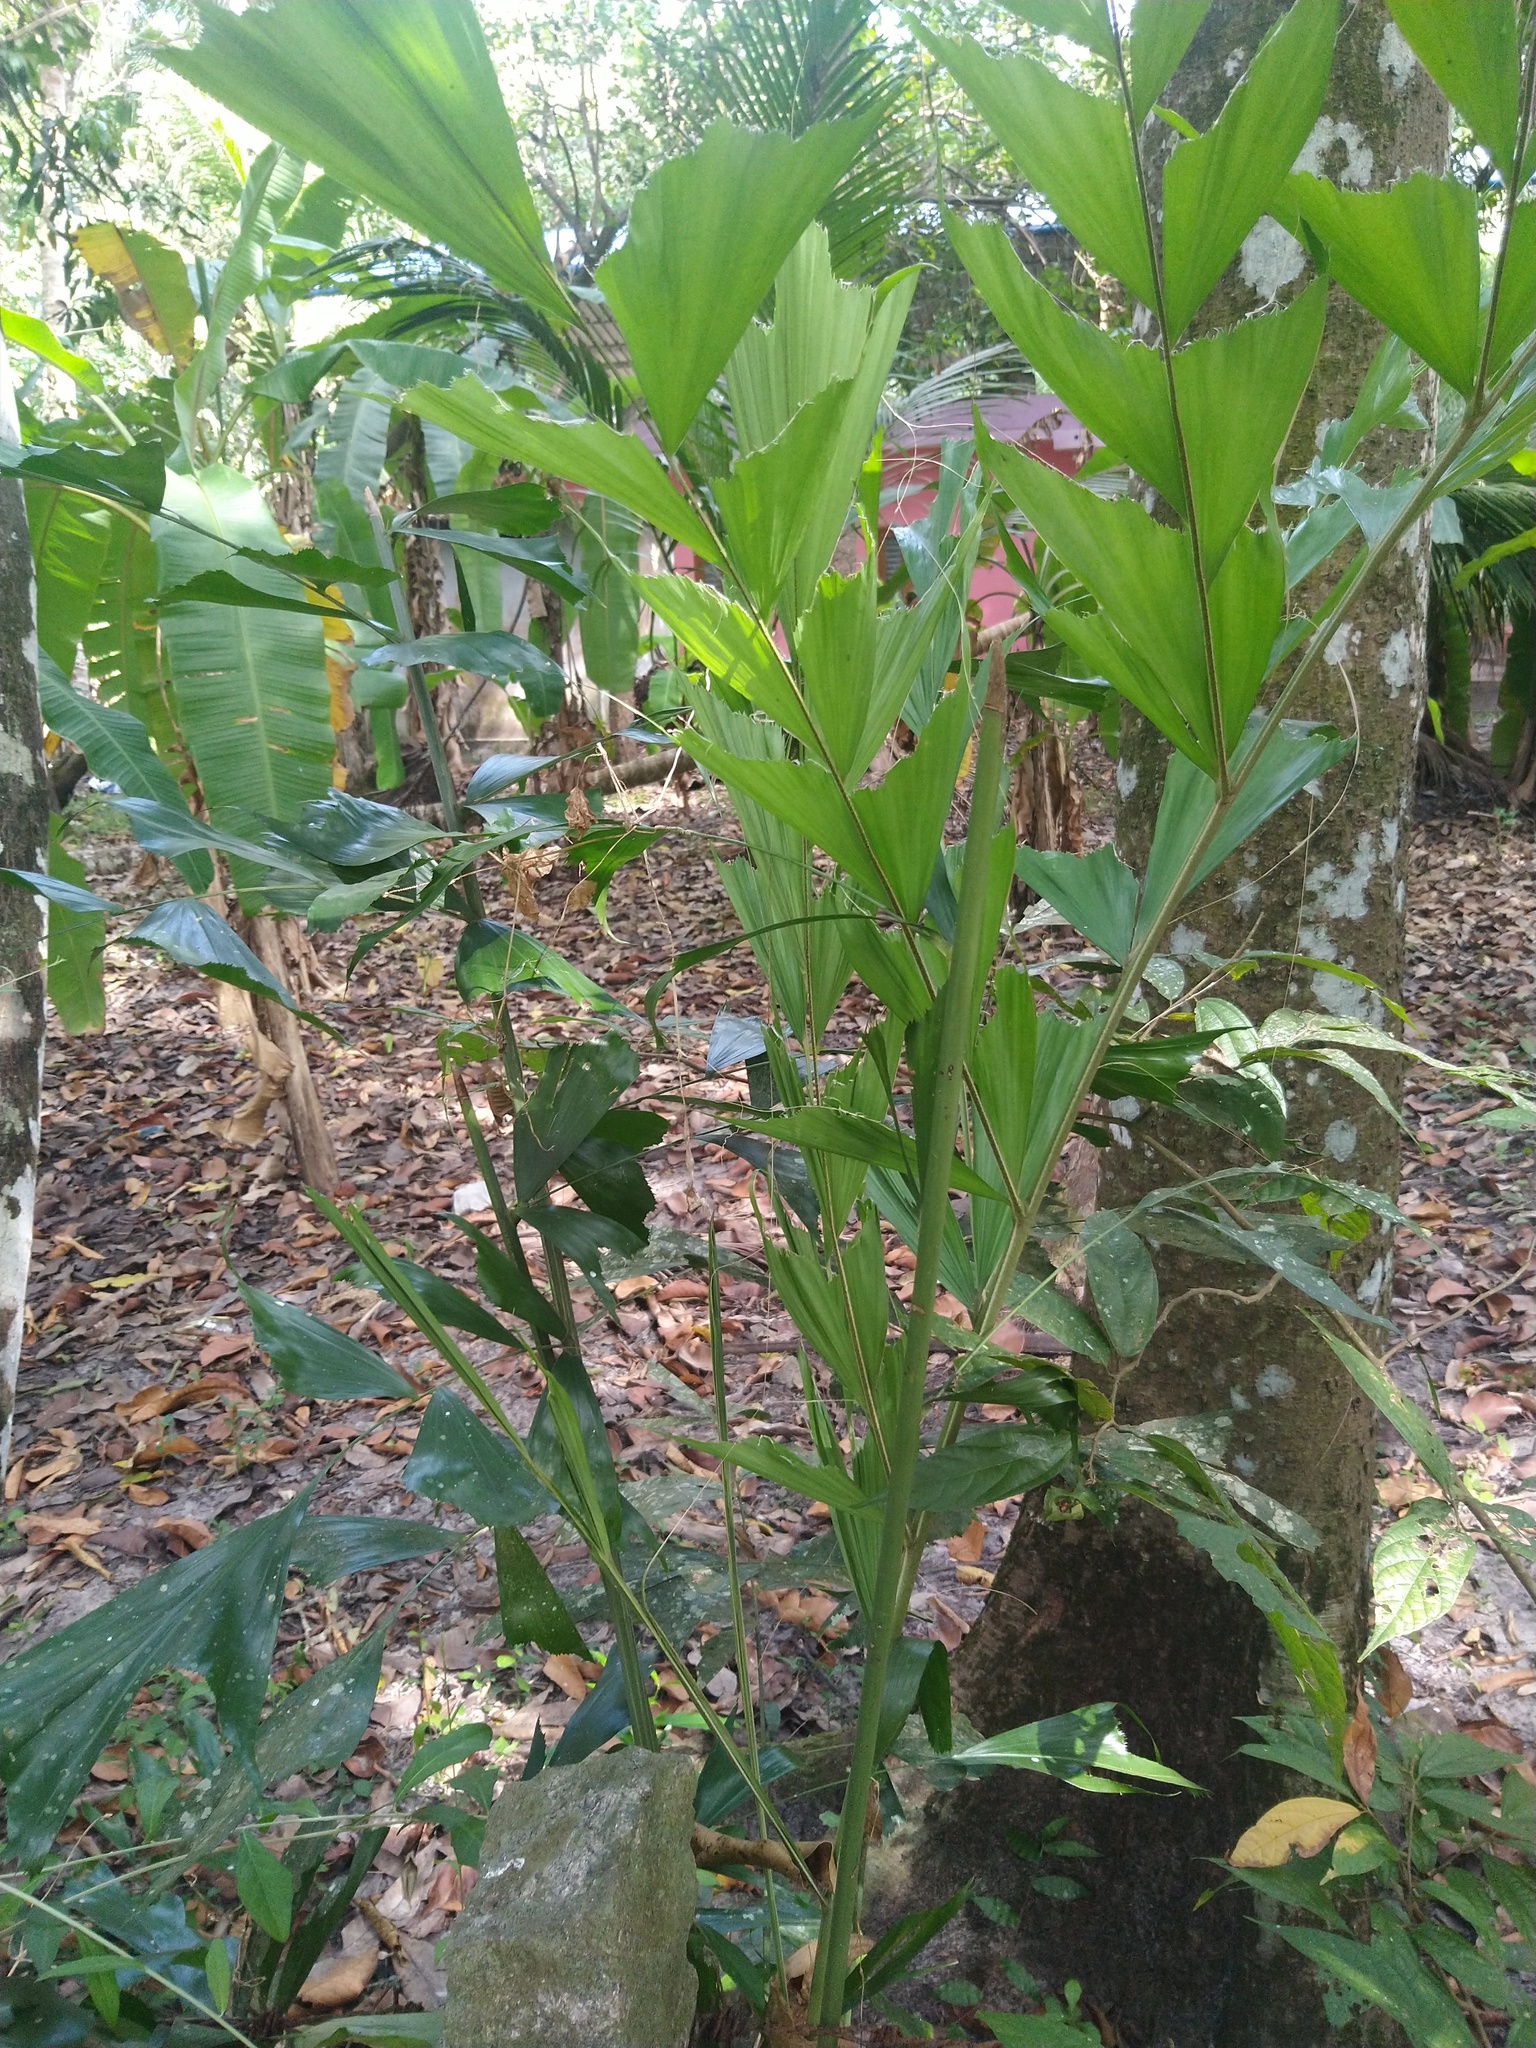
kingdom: Plantae
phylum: Tracheophyta
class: Liliopsida
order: Arecales
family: Arecaceae
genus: Caryota
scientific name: Caryota urens
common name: Jaggery palm
